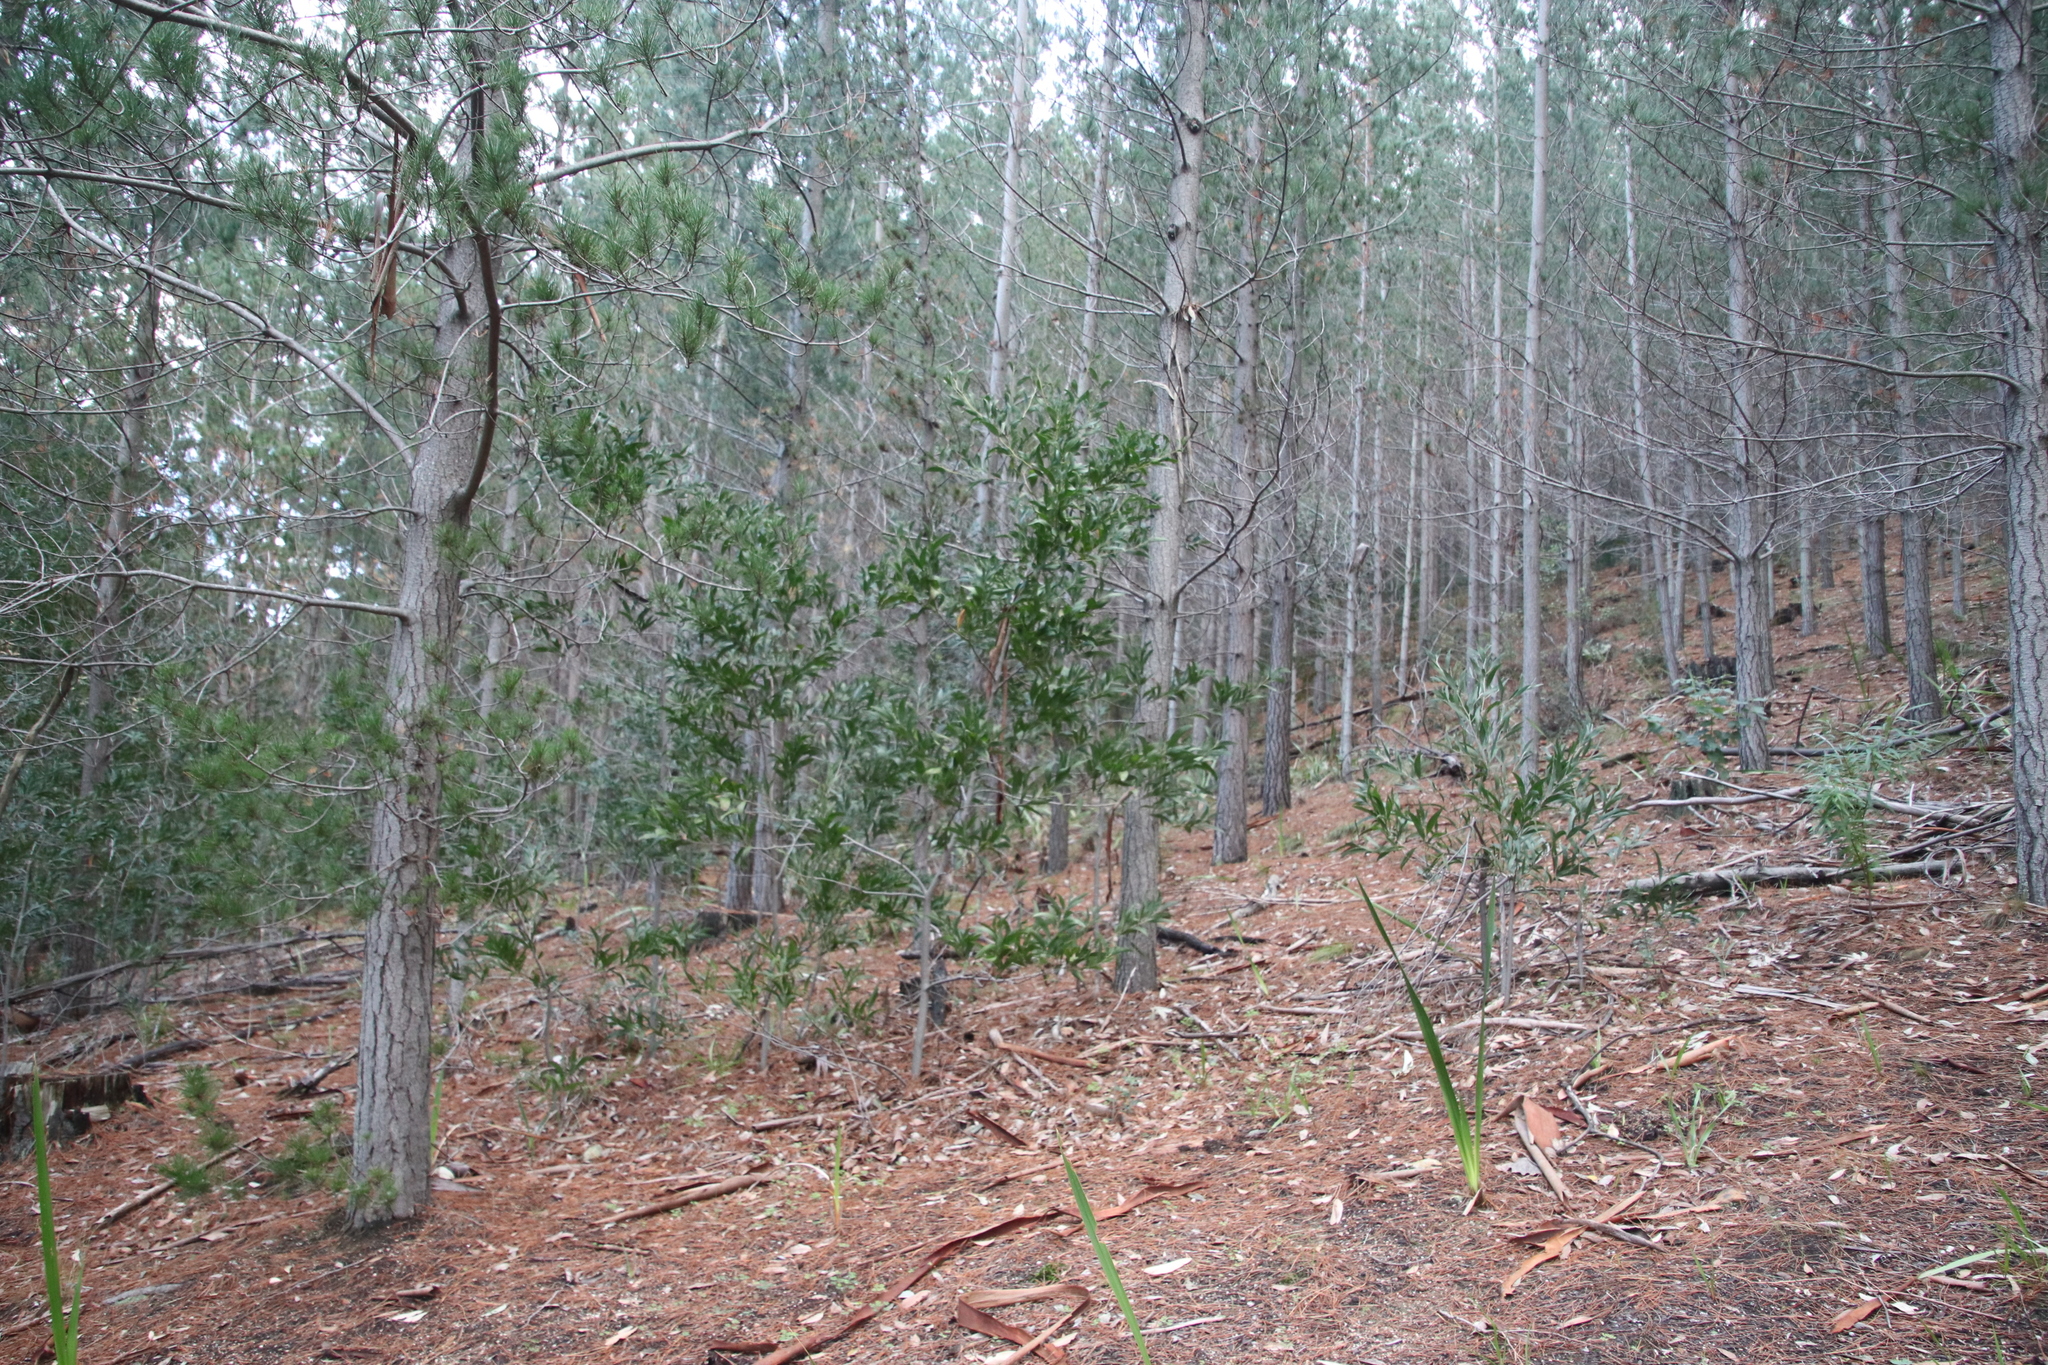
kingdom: Plantae
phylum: Tracheophyta
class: Magnoliopsida
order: Fabales
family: Fabaceae
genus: Acacia
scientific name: Acacia melanoxylon
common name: Blackwood
